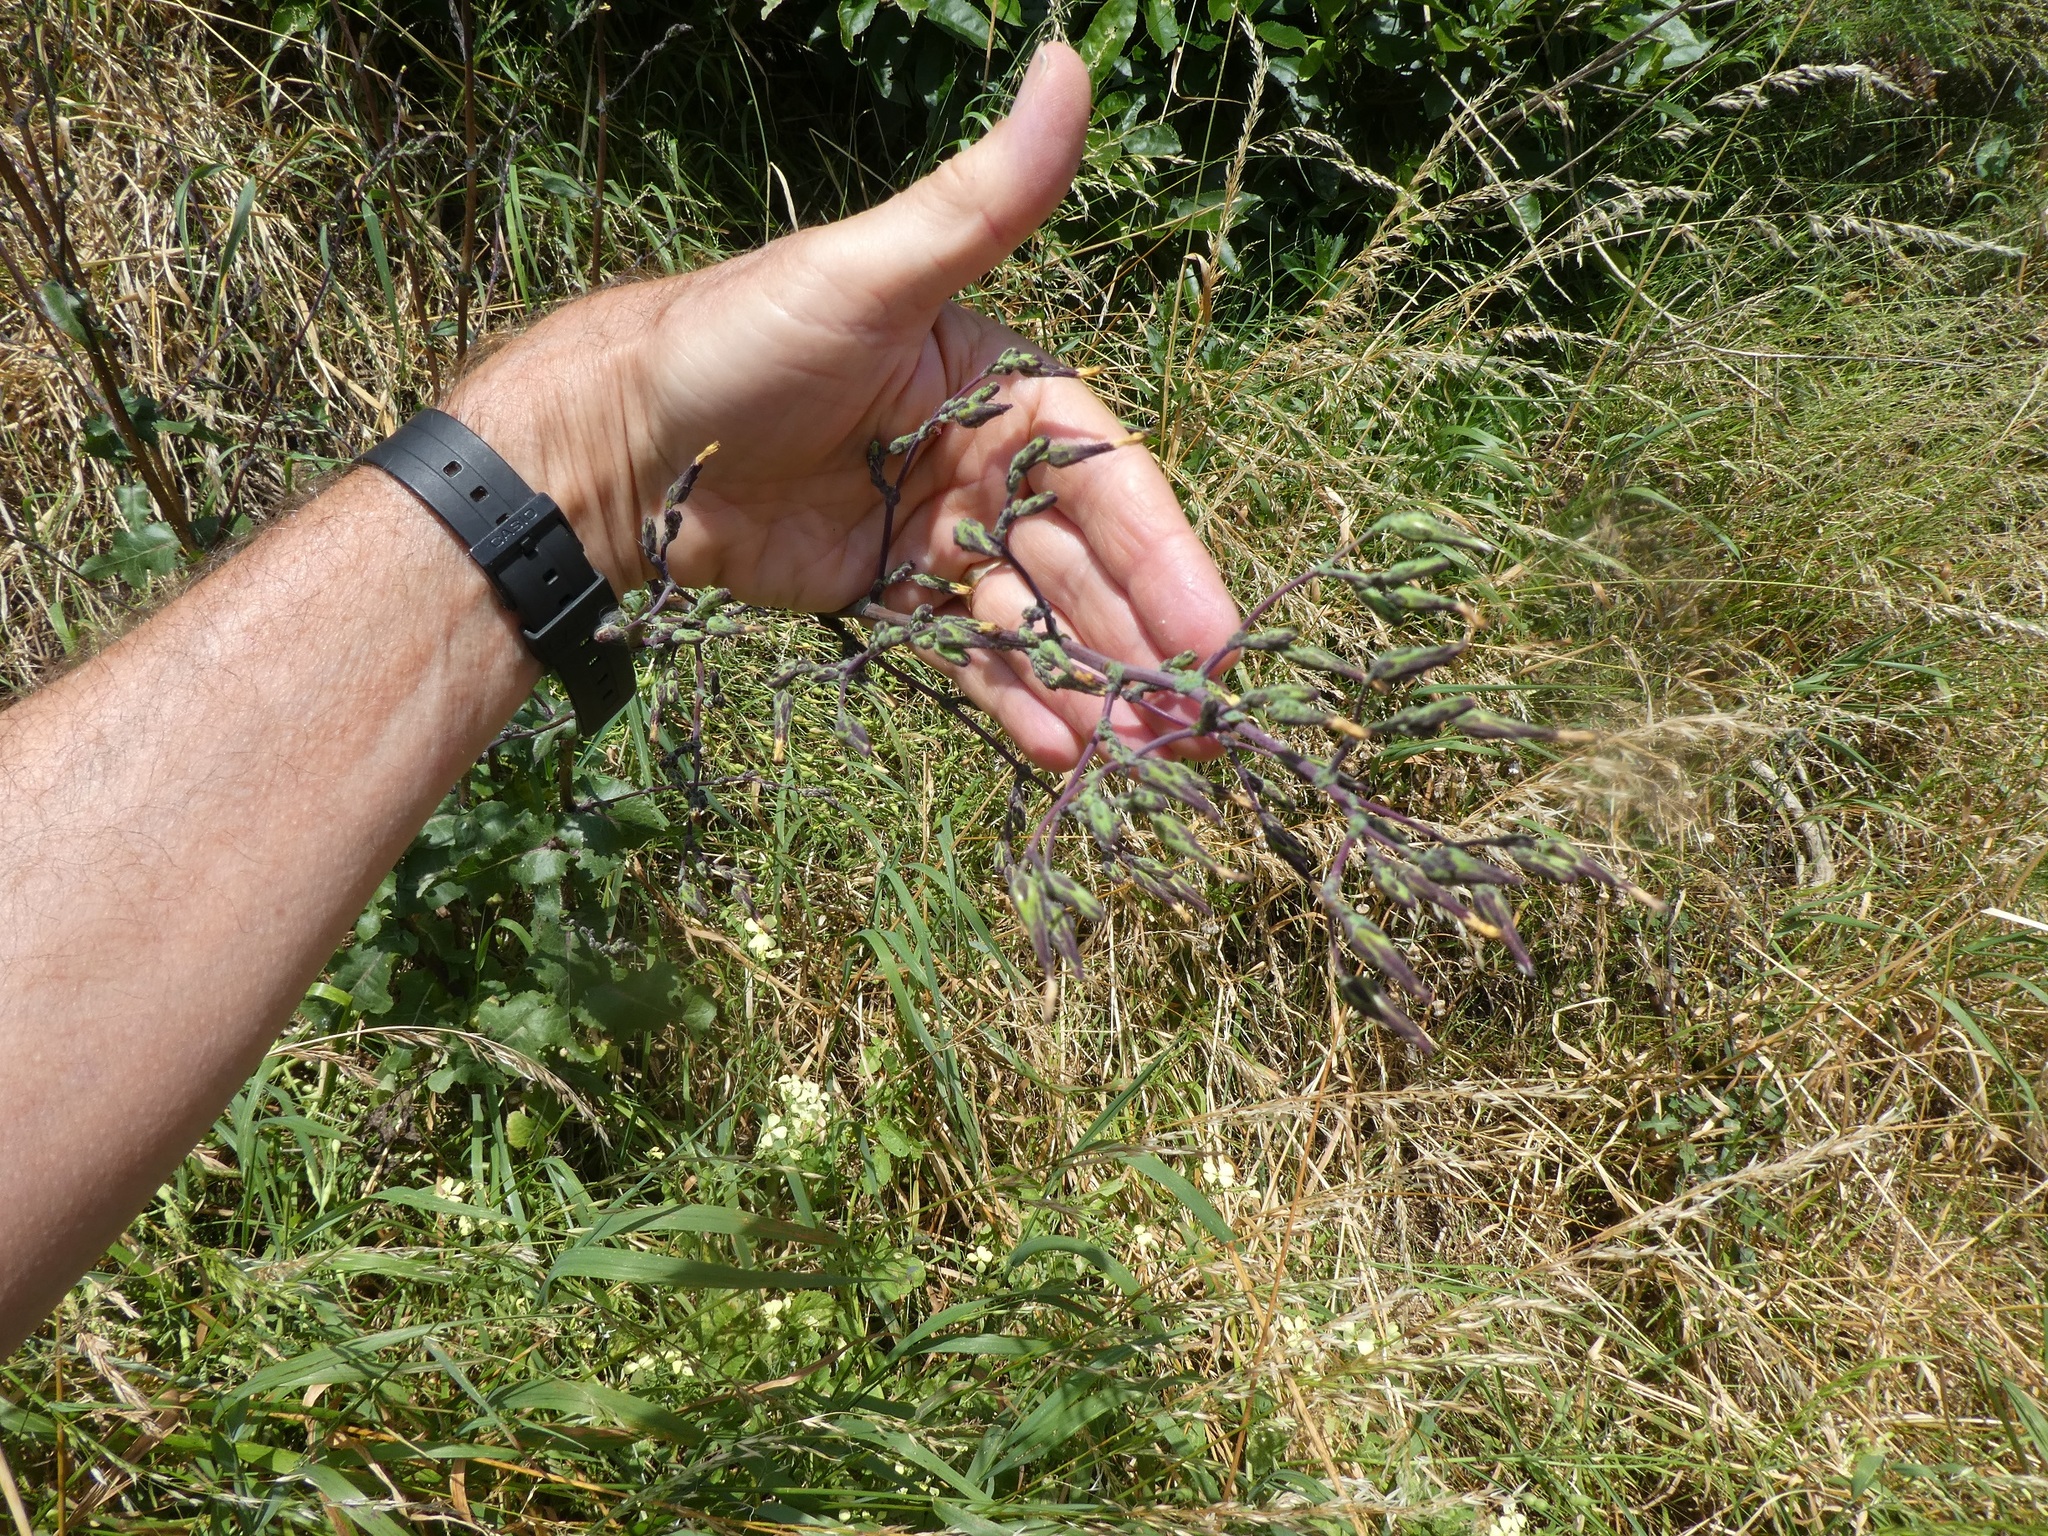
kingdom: Plantae
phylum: Tracheophyta
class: Magnoliopsida
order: Asterales
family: Asteraceae
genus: Lactuca
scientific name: Lactuca virosa
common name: Great lettuce
